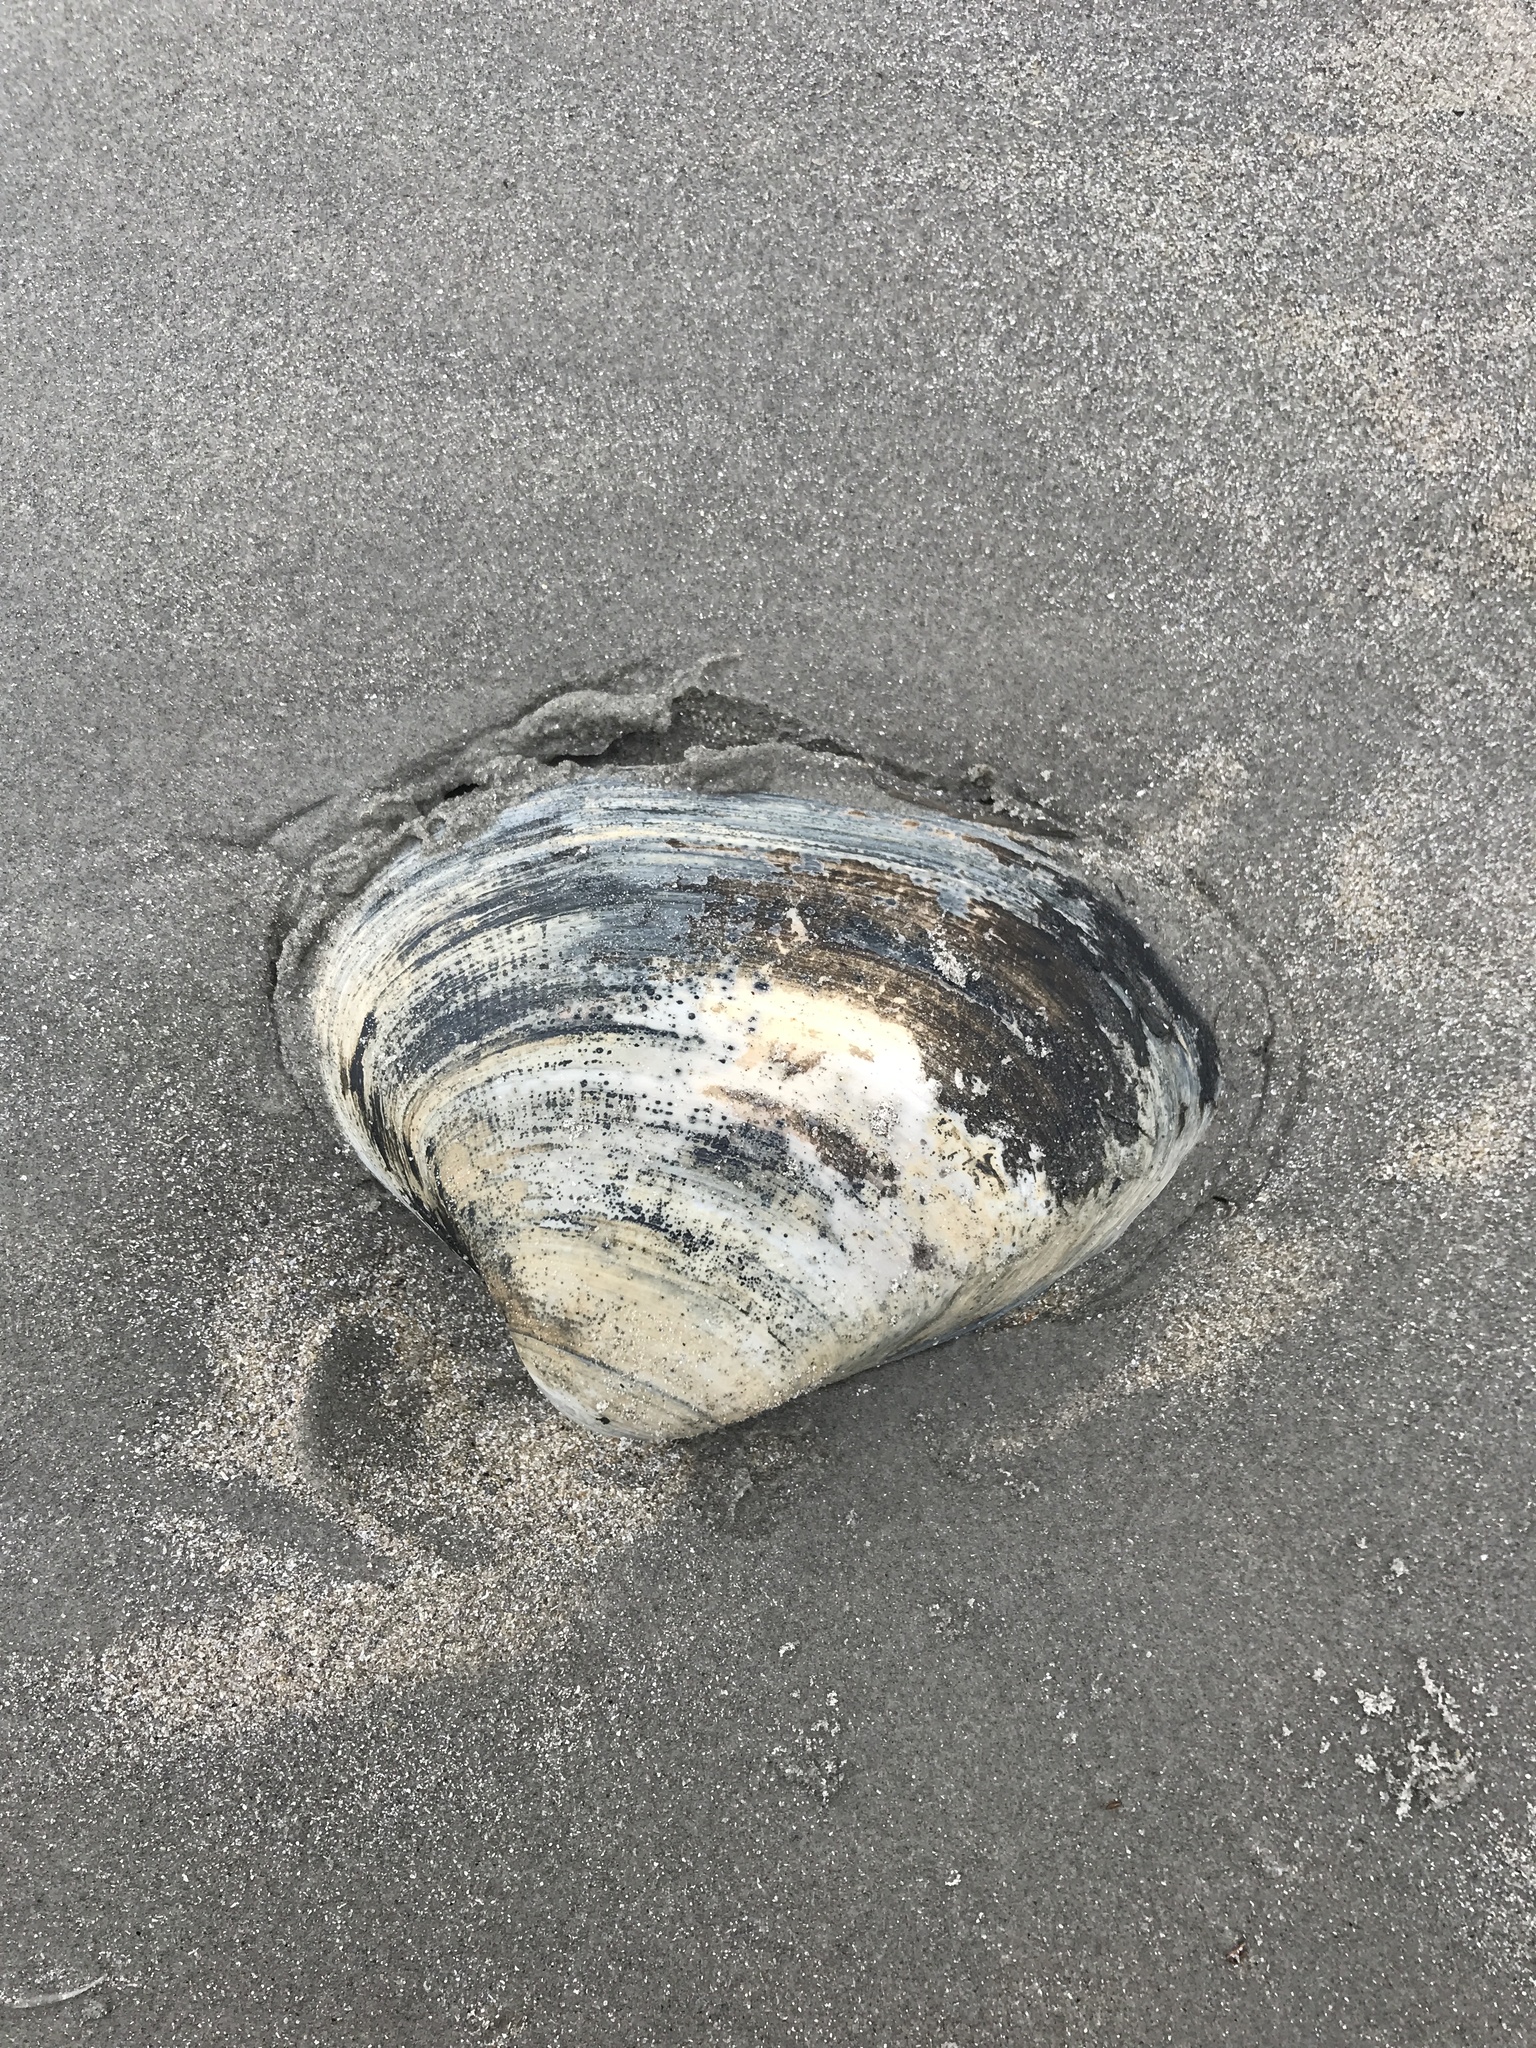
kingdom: Animalia
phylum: Mollusca
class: Bivalvia
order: Venerida
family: Mactridae
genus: Spisula
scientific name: Spisula solidissima
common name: Atlantic surf clam
